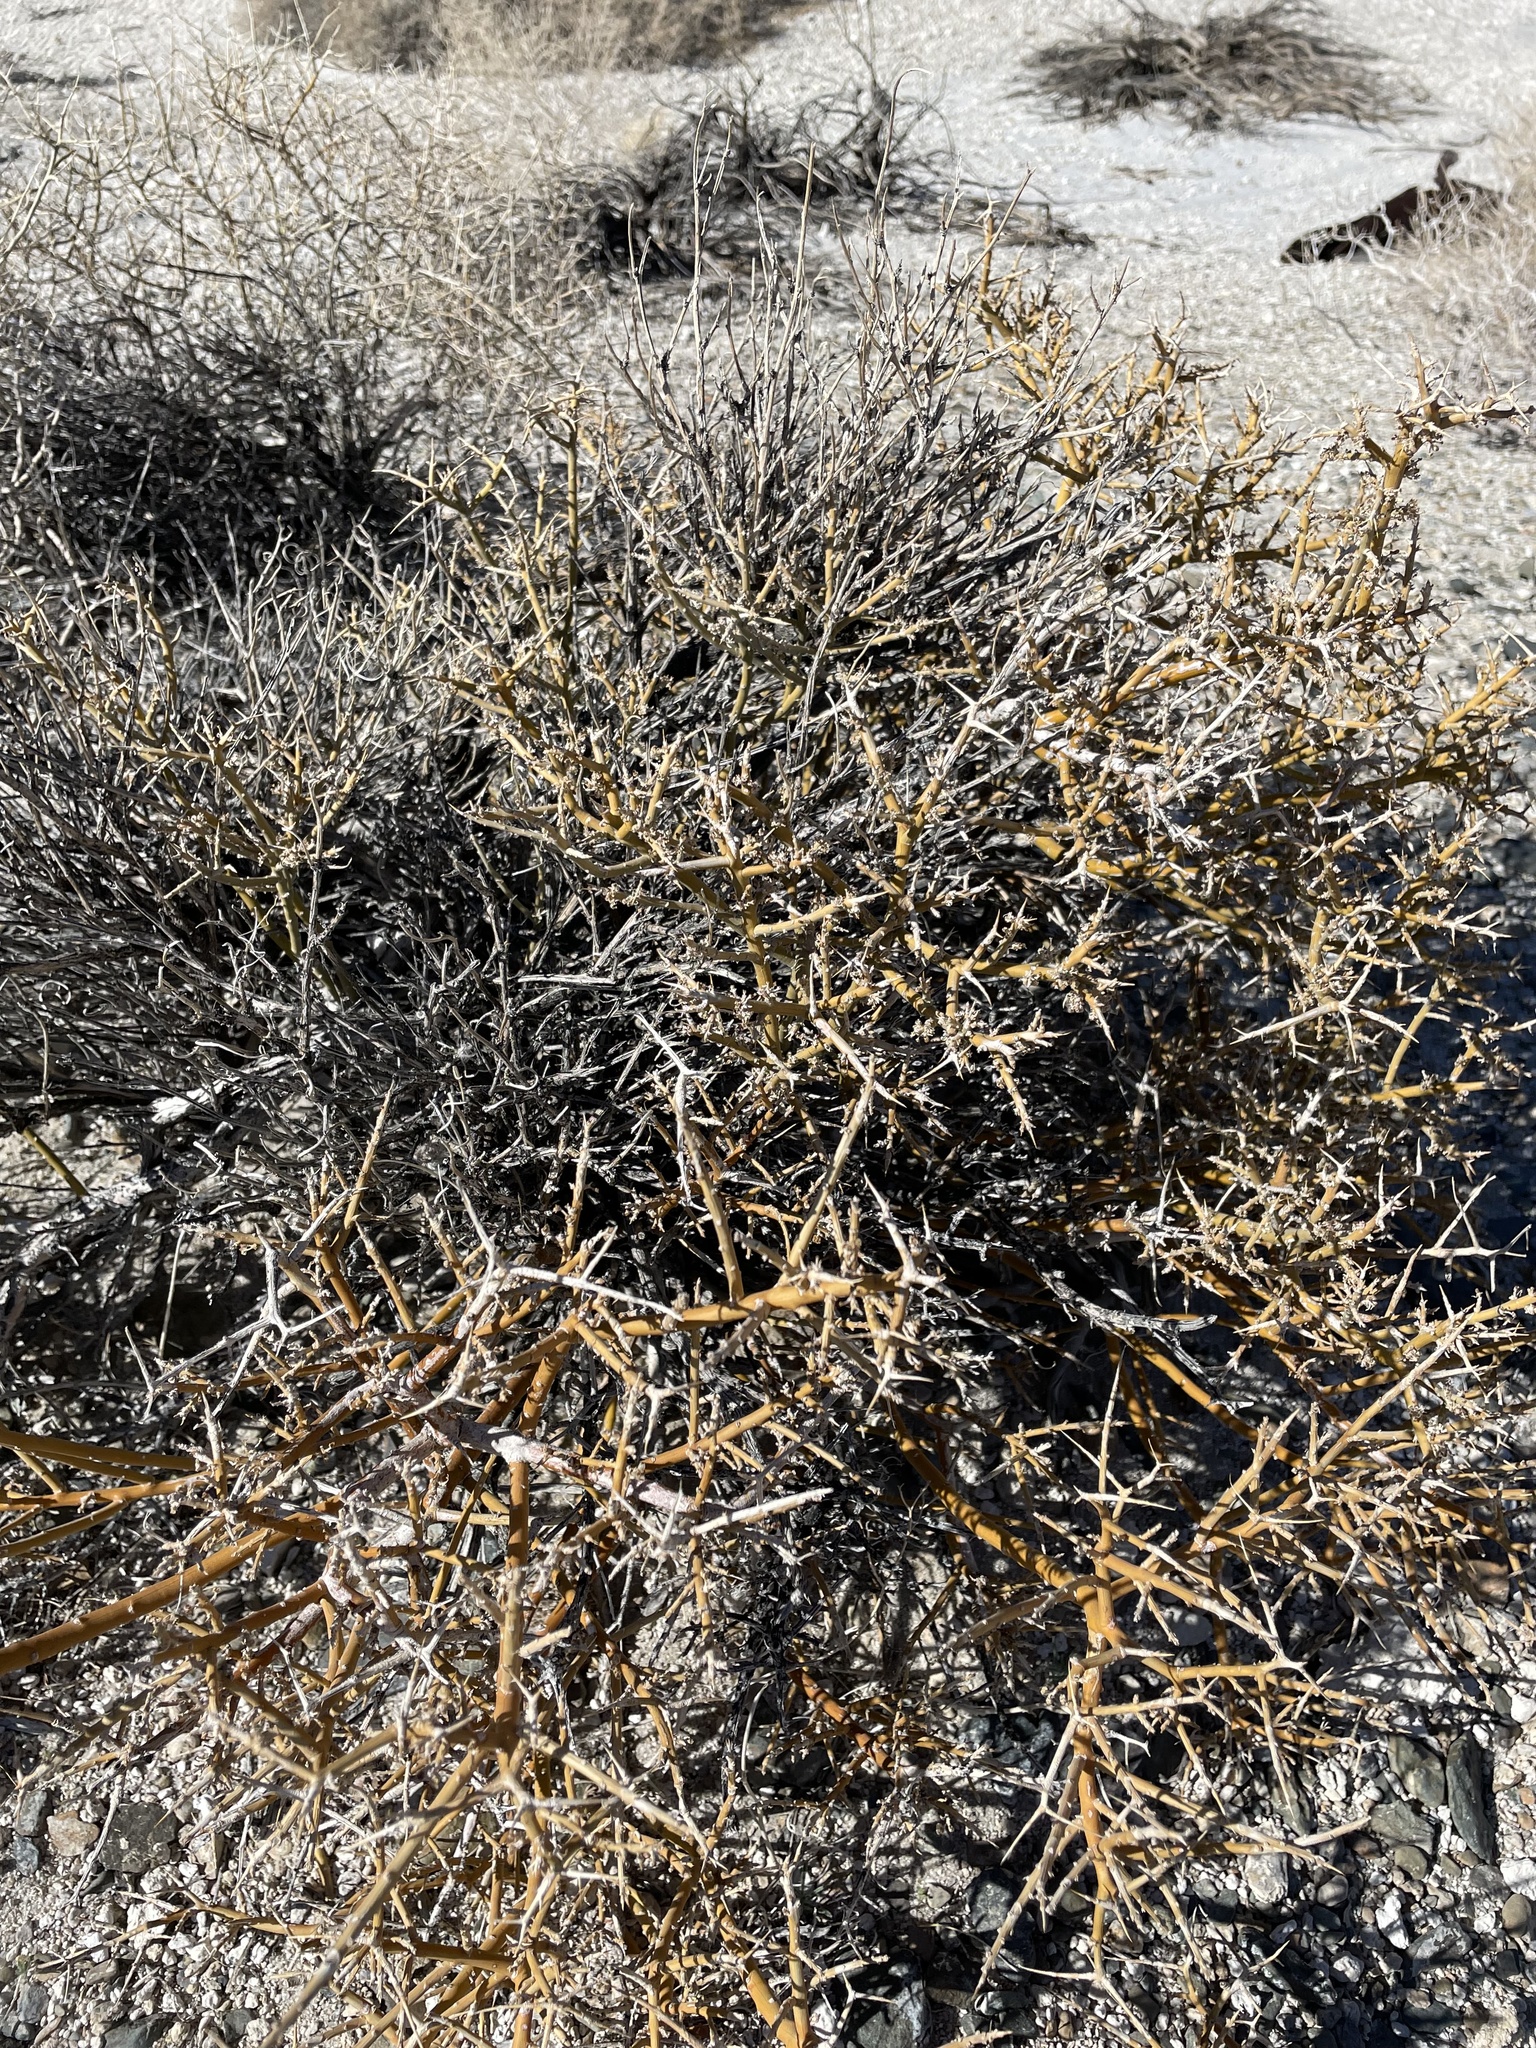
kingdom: Plantae
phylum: Tracheophyta
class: Magnoliopsida
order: Lamiales
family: Oleaceae
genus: Menodora
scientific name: Menodora spinescens
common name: Spiny menodora
